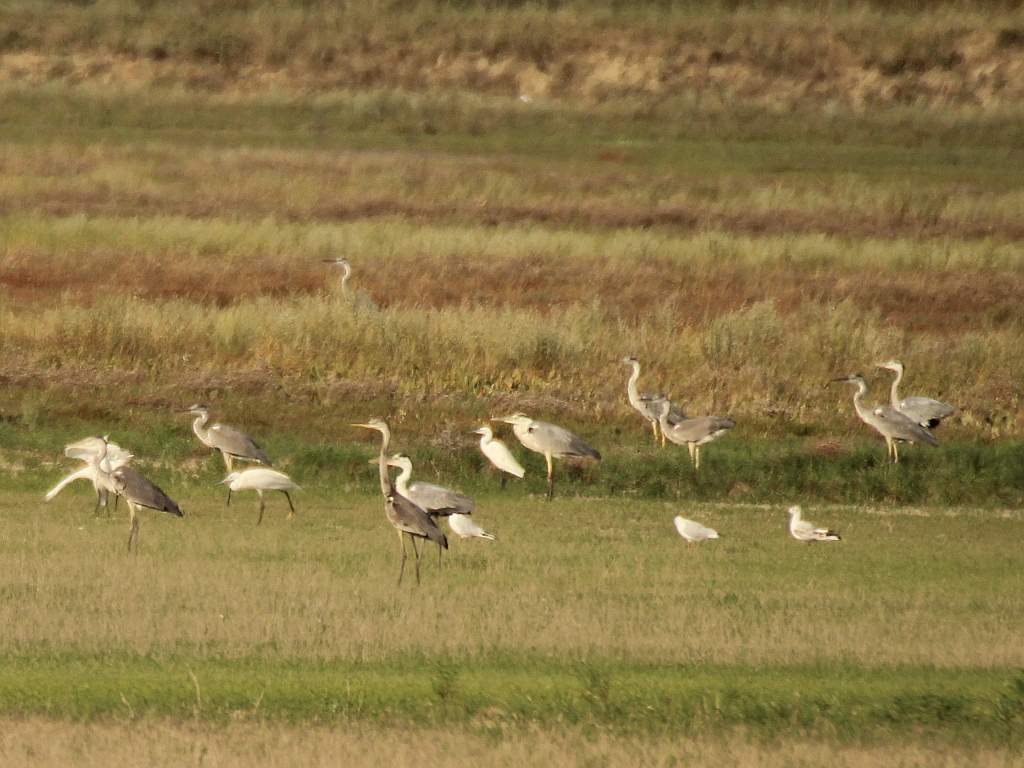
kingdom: Animalia
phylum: Chordata
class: Aves
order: Pelecaniformes
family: Ardeidae
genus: Ardea
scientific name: Ardea cinerea
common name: Grey heron
